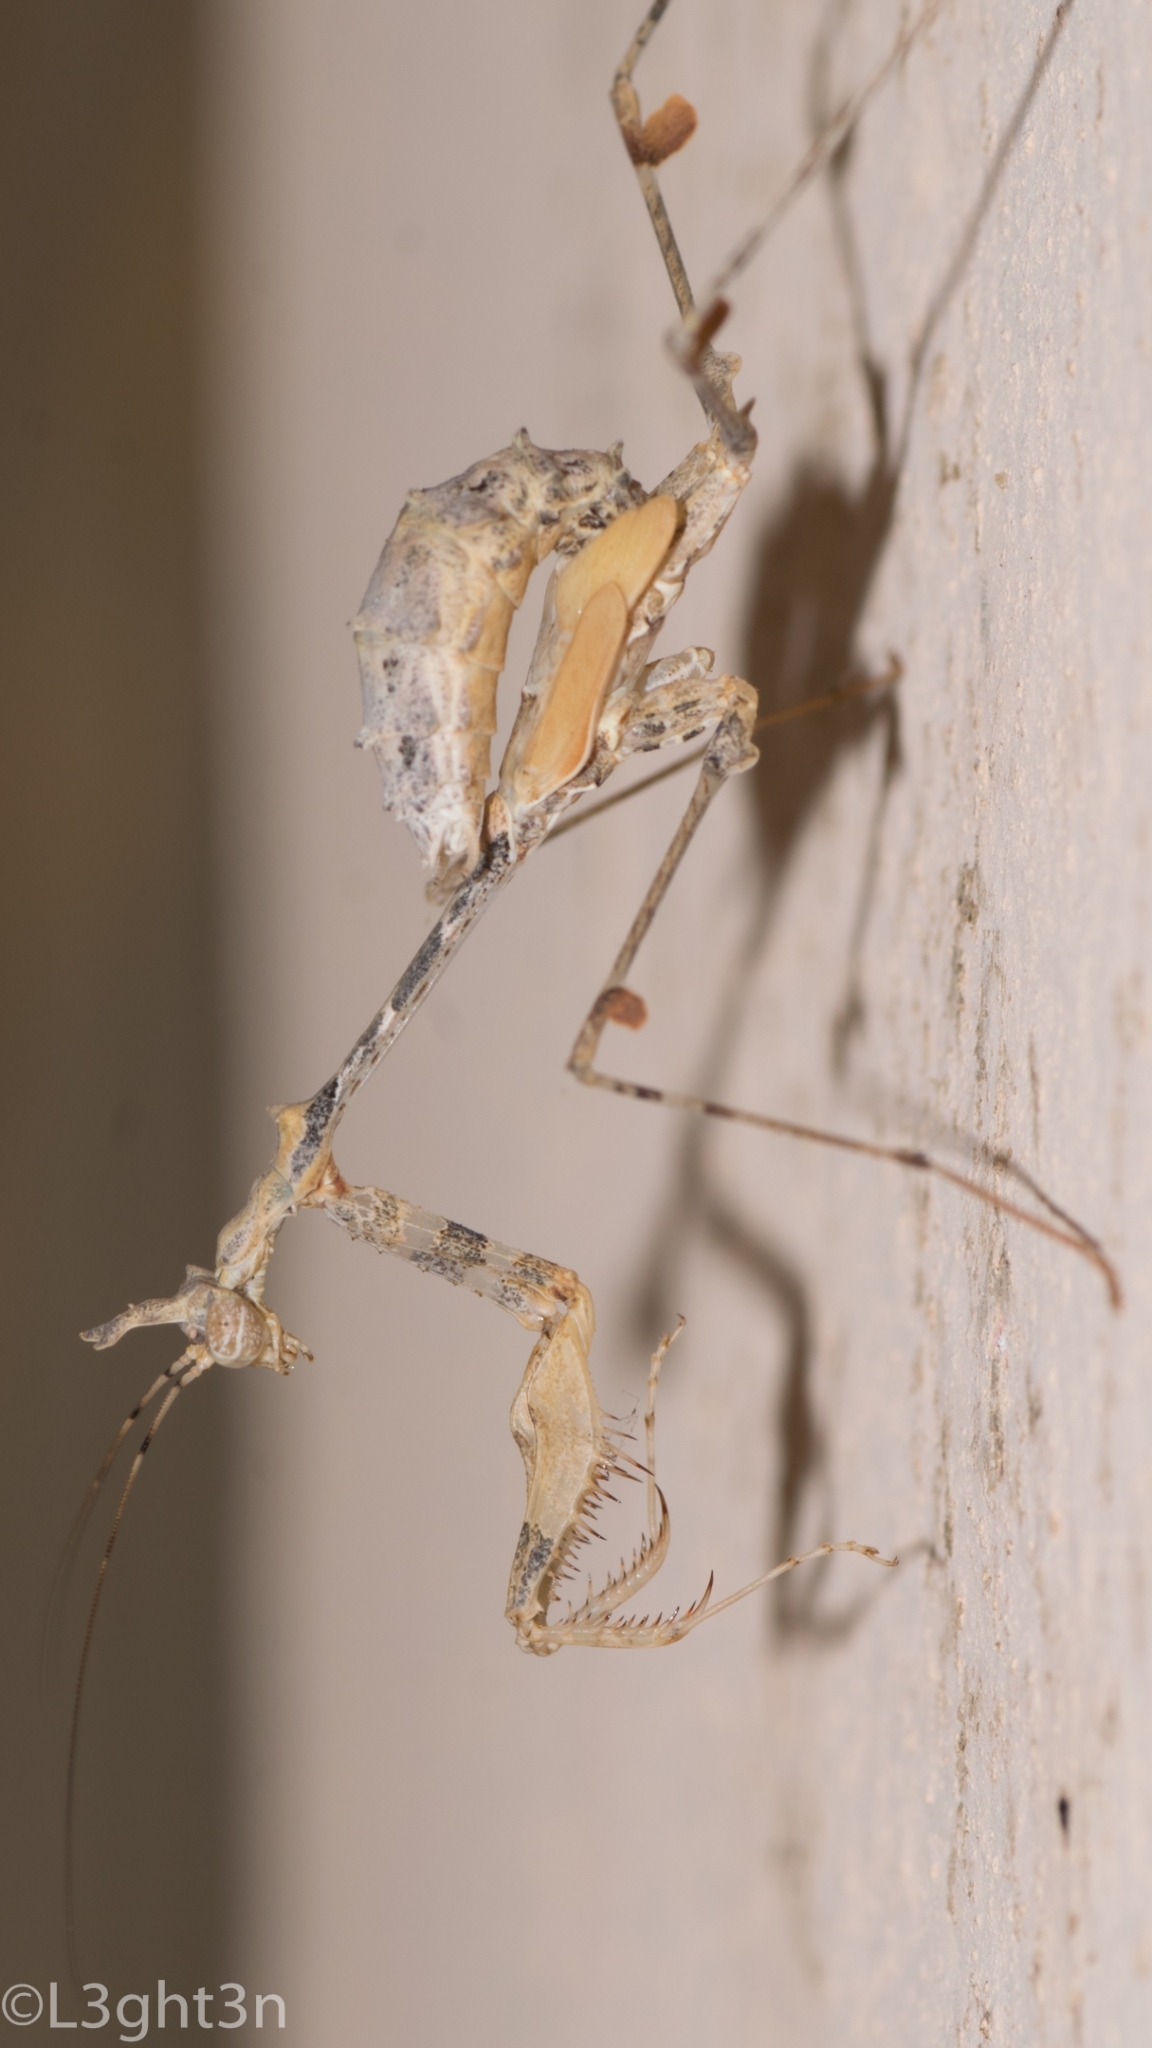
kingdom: Animalia
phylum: Arthropoda
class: Insecta
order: Mantodea
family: Hymenopodidae
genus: Sibylla
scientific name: Sibylla pretiosa
